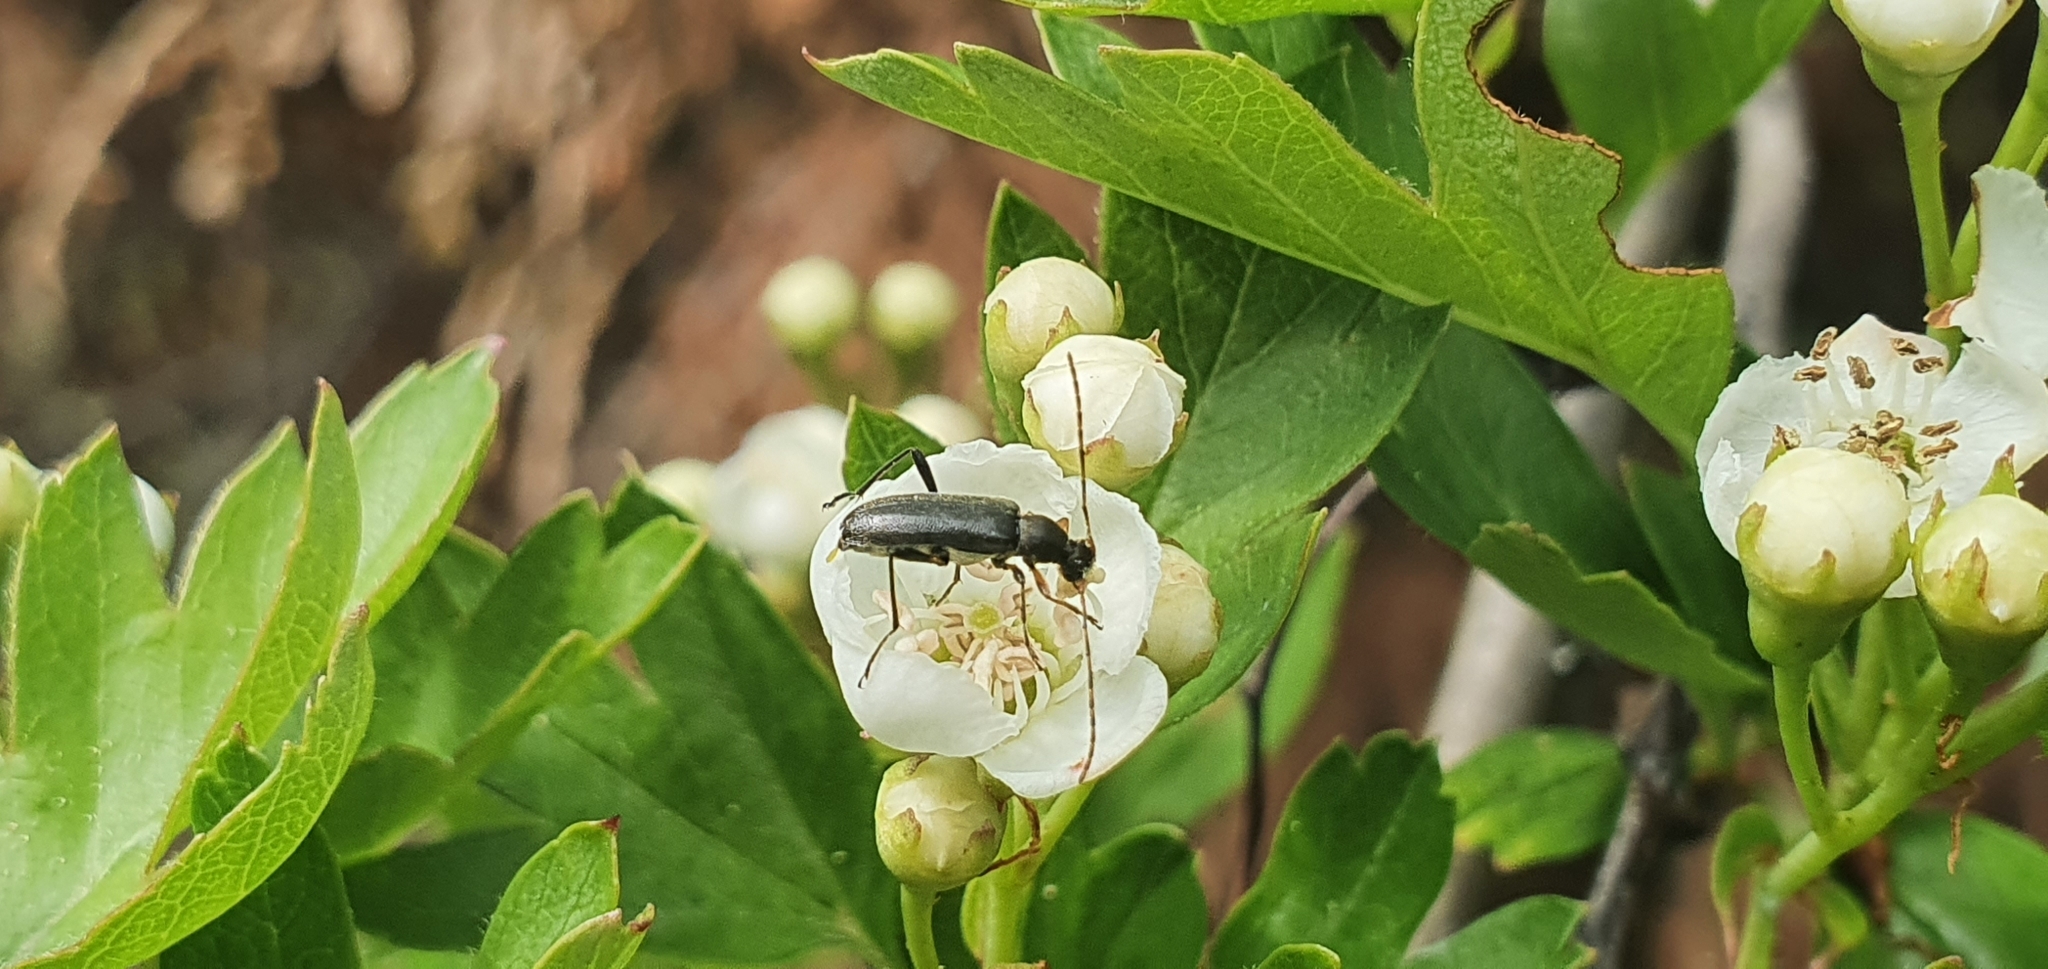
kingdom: Animalia
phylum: Arthropoda
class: Insecta
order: Coleoptera
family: Cerambycidae
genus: Grammoptera
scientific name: Grammoptera ruficornis
